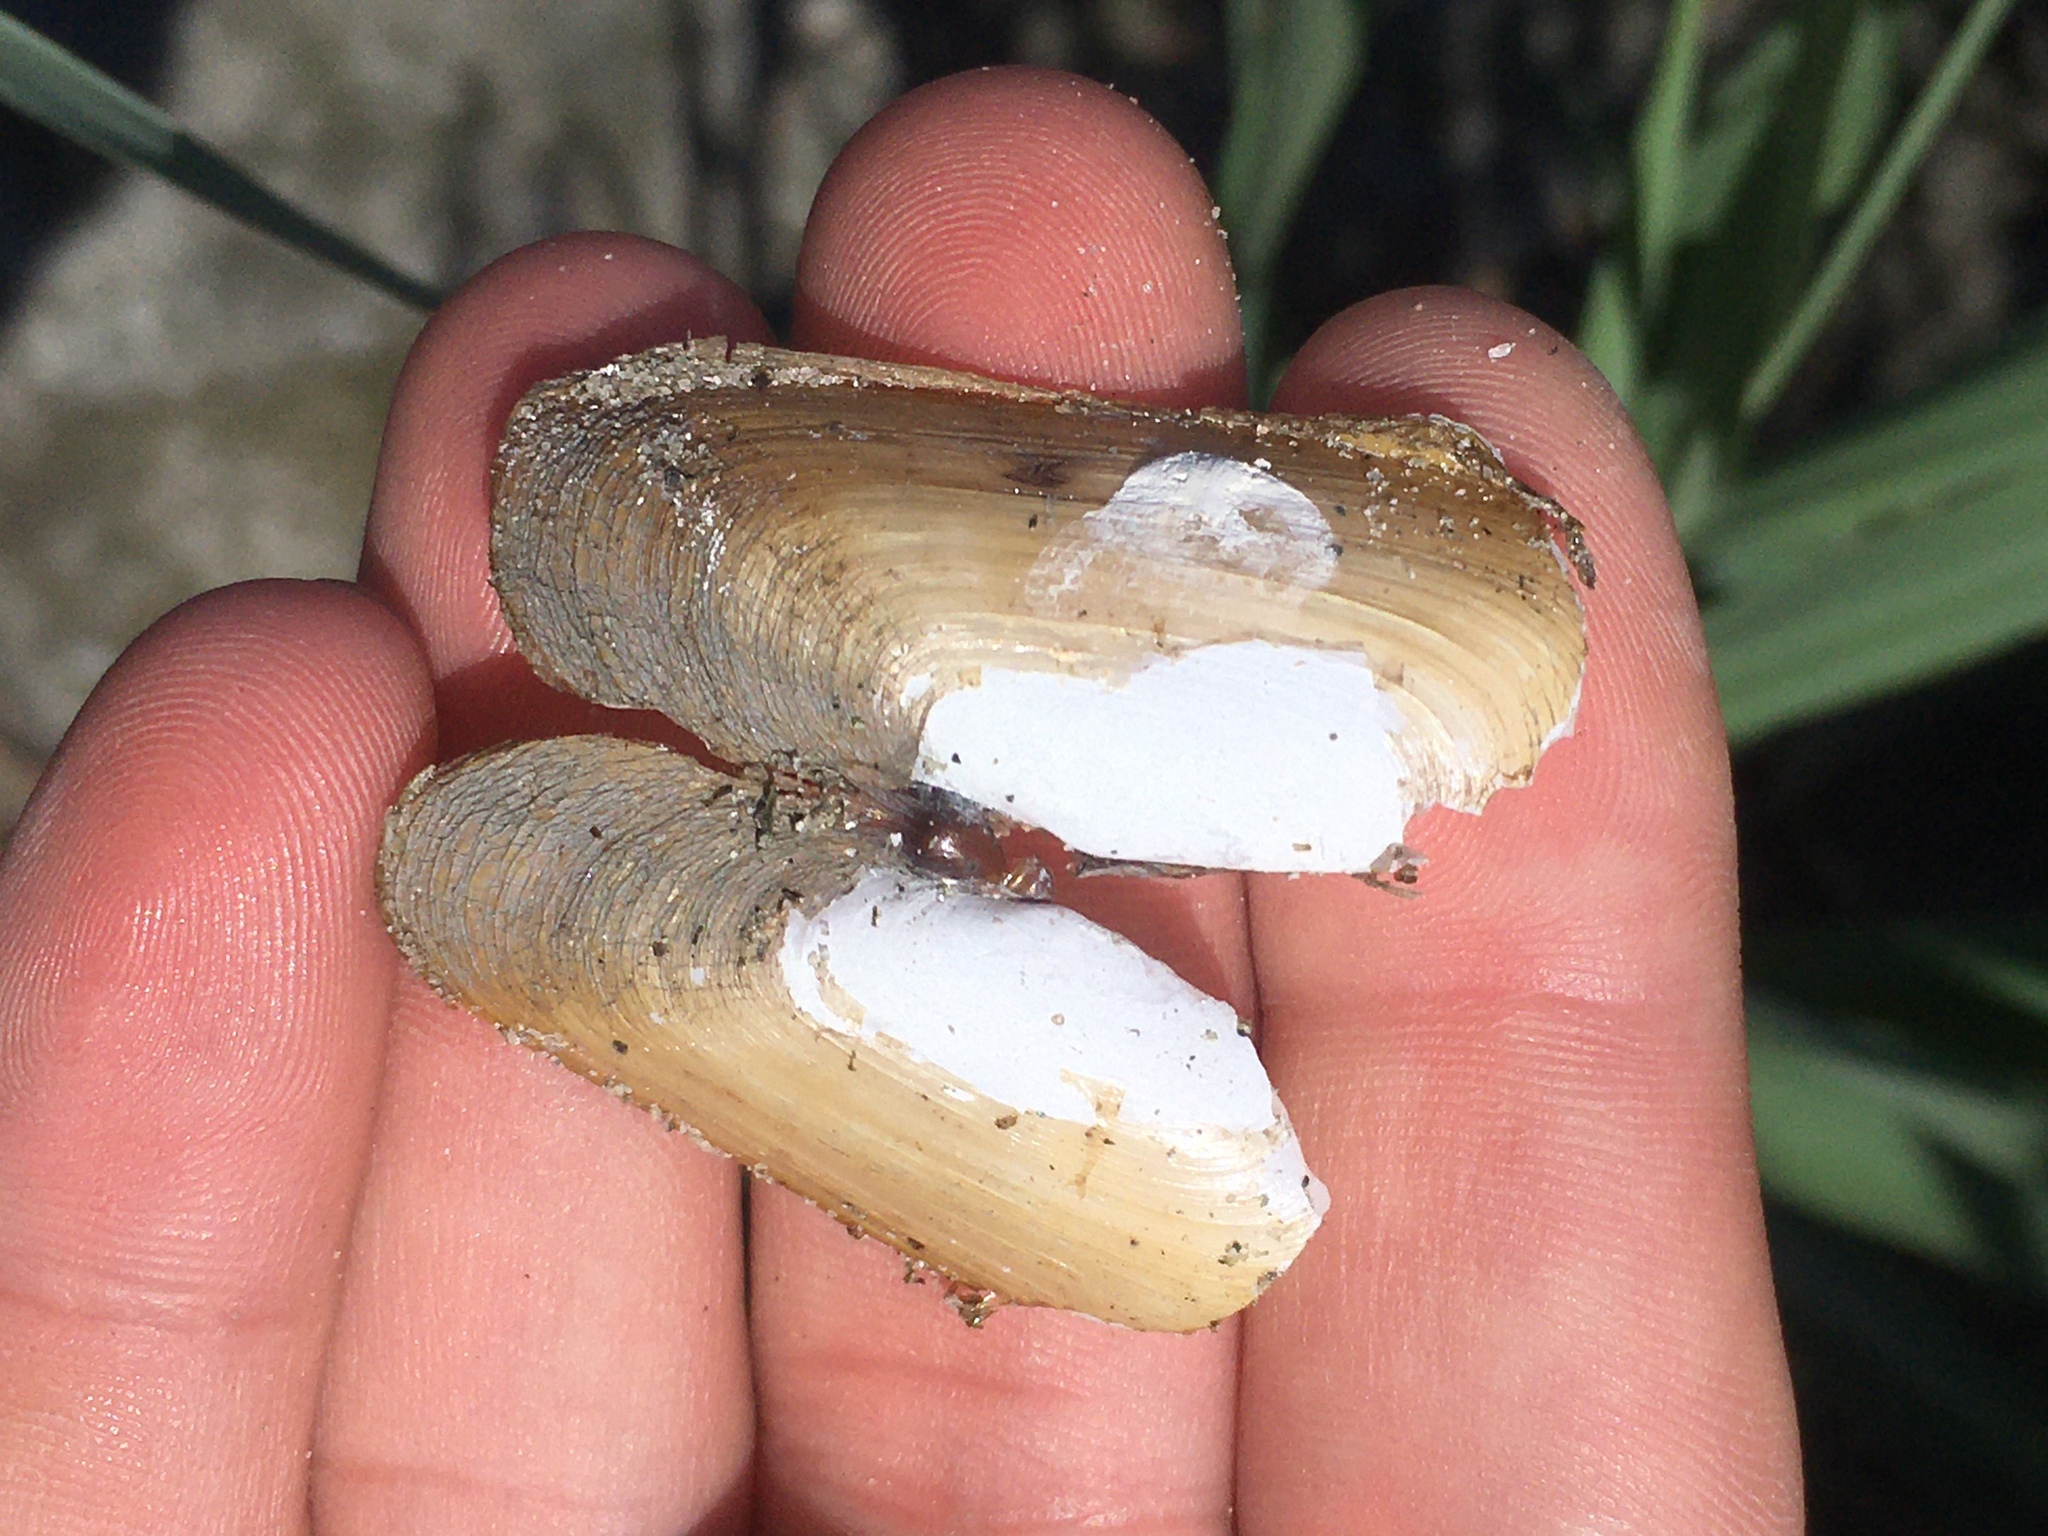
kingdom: Animalia
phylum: Mollusca
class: Bivalvia
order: Cardiida
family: Solecurtidae
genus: Tagelus
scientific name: Tagelus plebeius
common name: Stout tagelus
